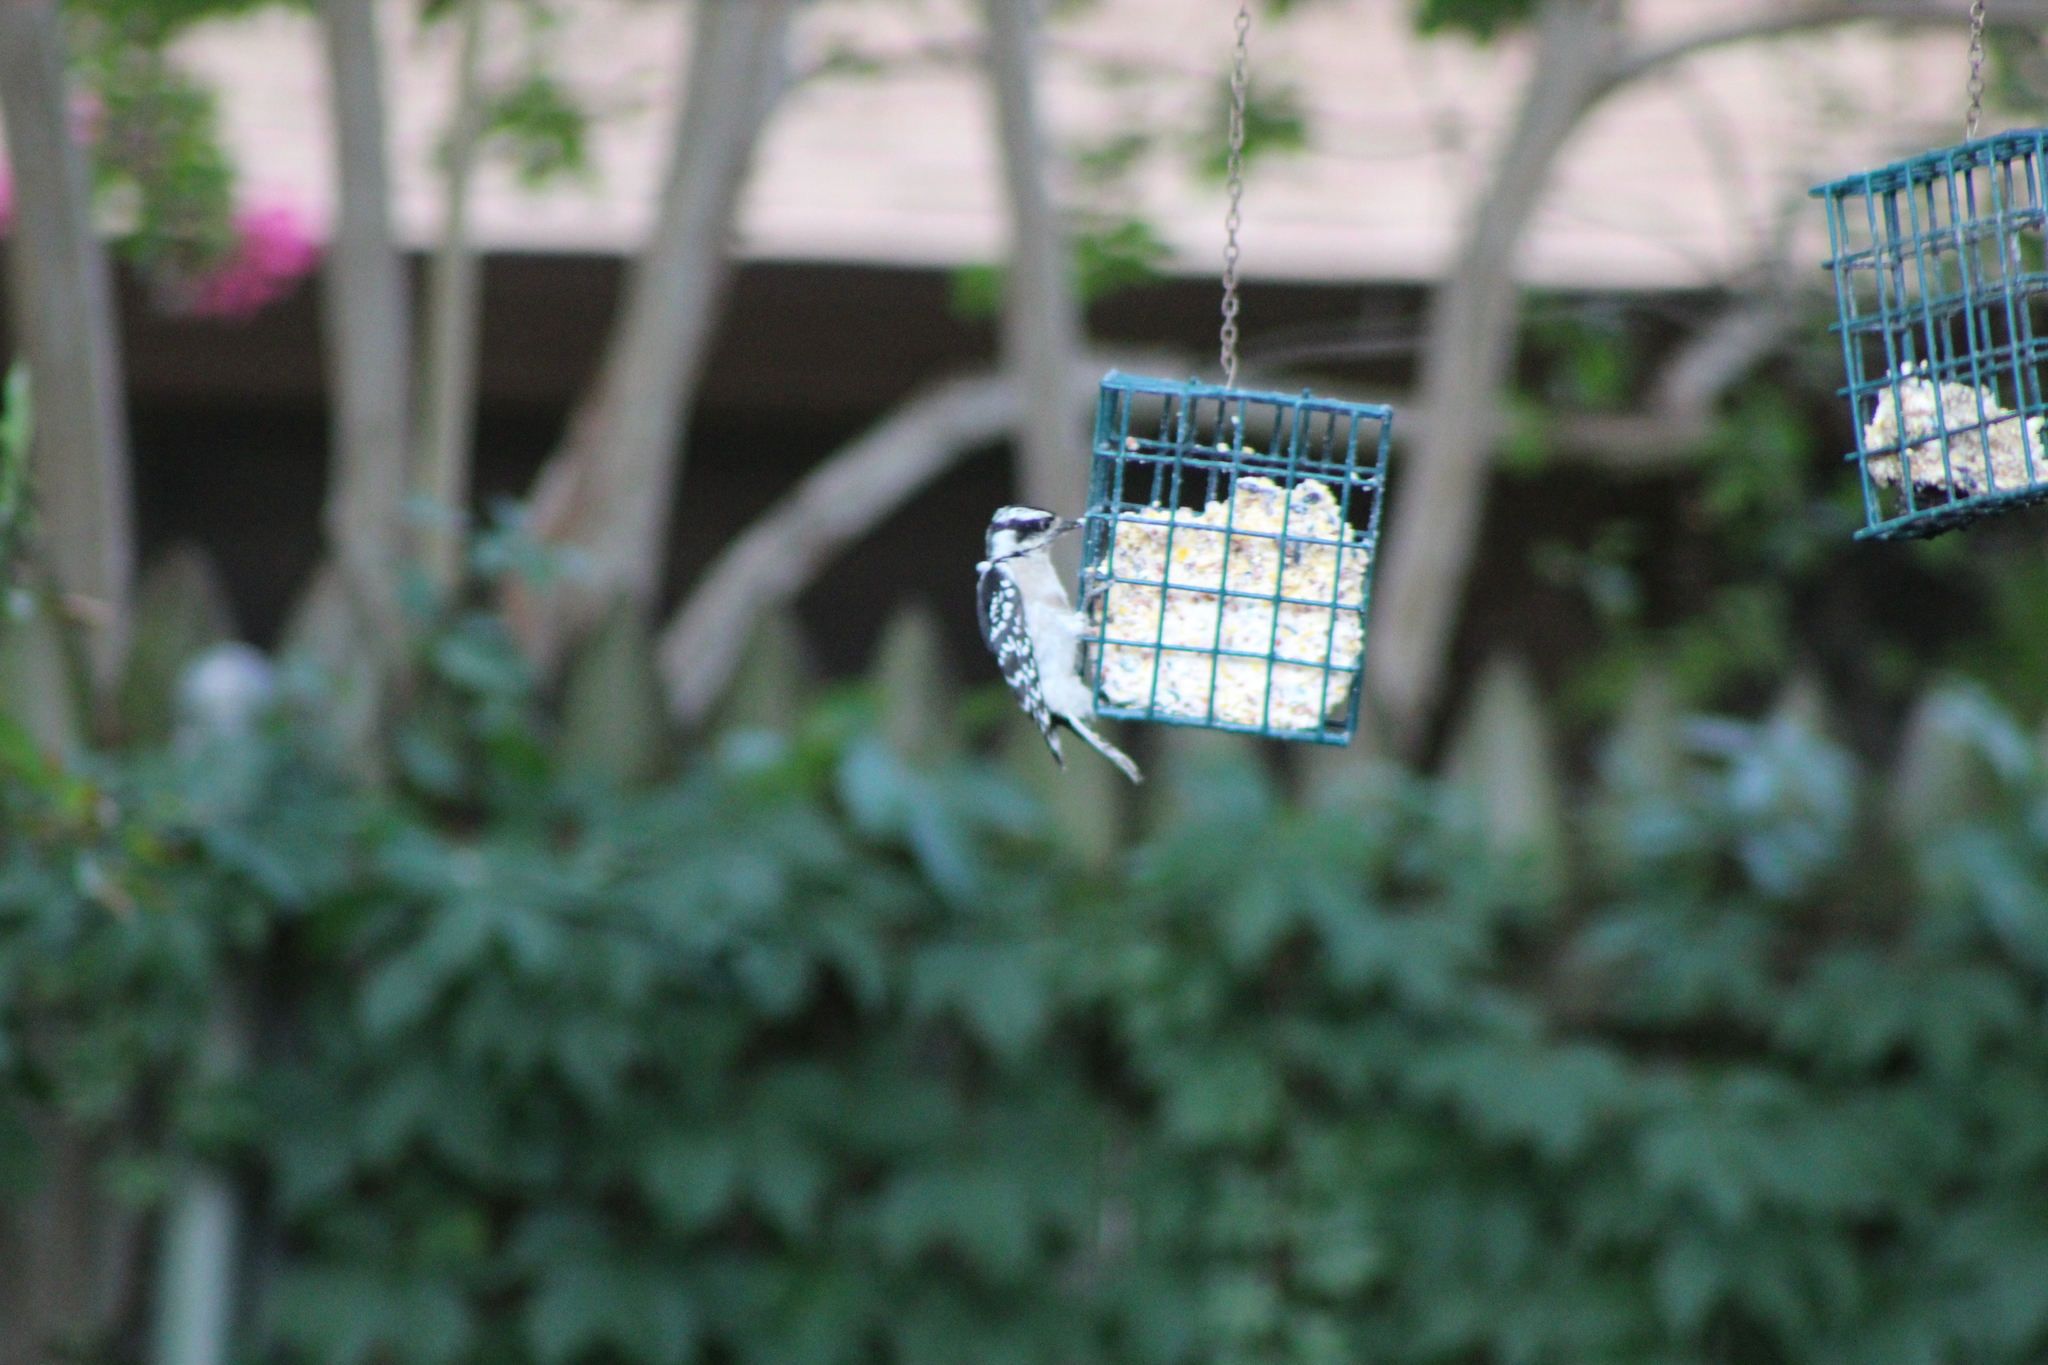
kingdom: Animalia
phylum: Chordata
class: Aves
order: Piciformes
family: Picidae
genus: Dryobates
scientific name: Dryobates pubescens
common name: Downy woodpecker
